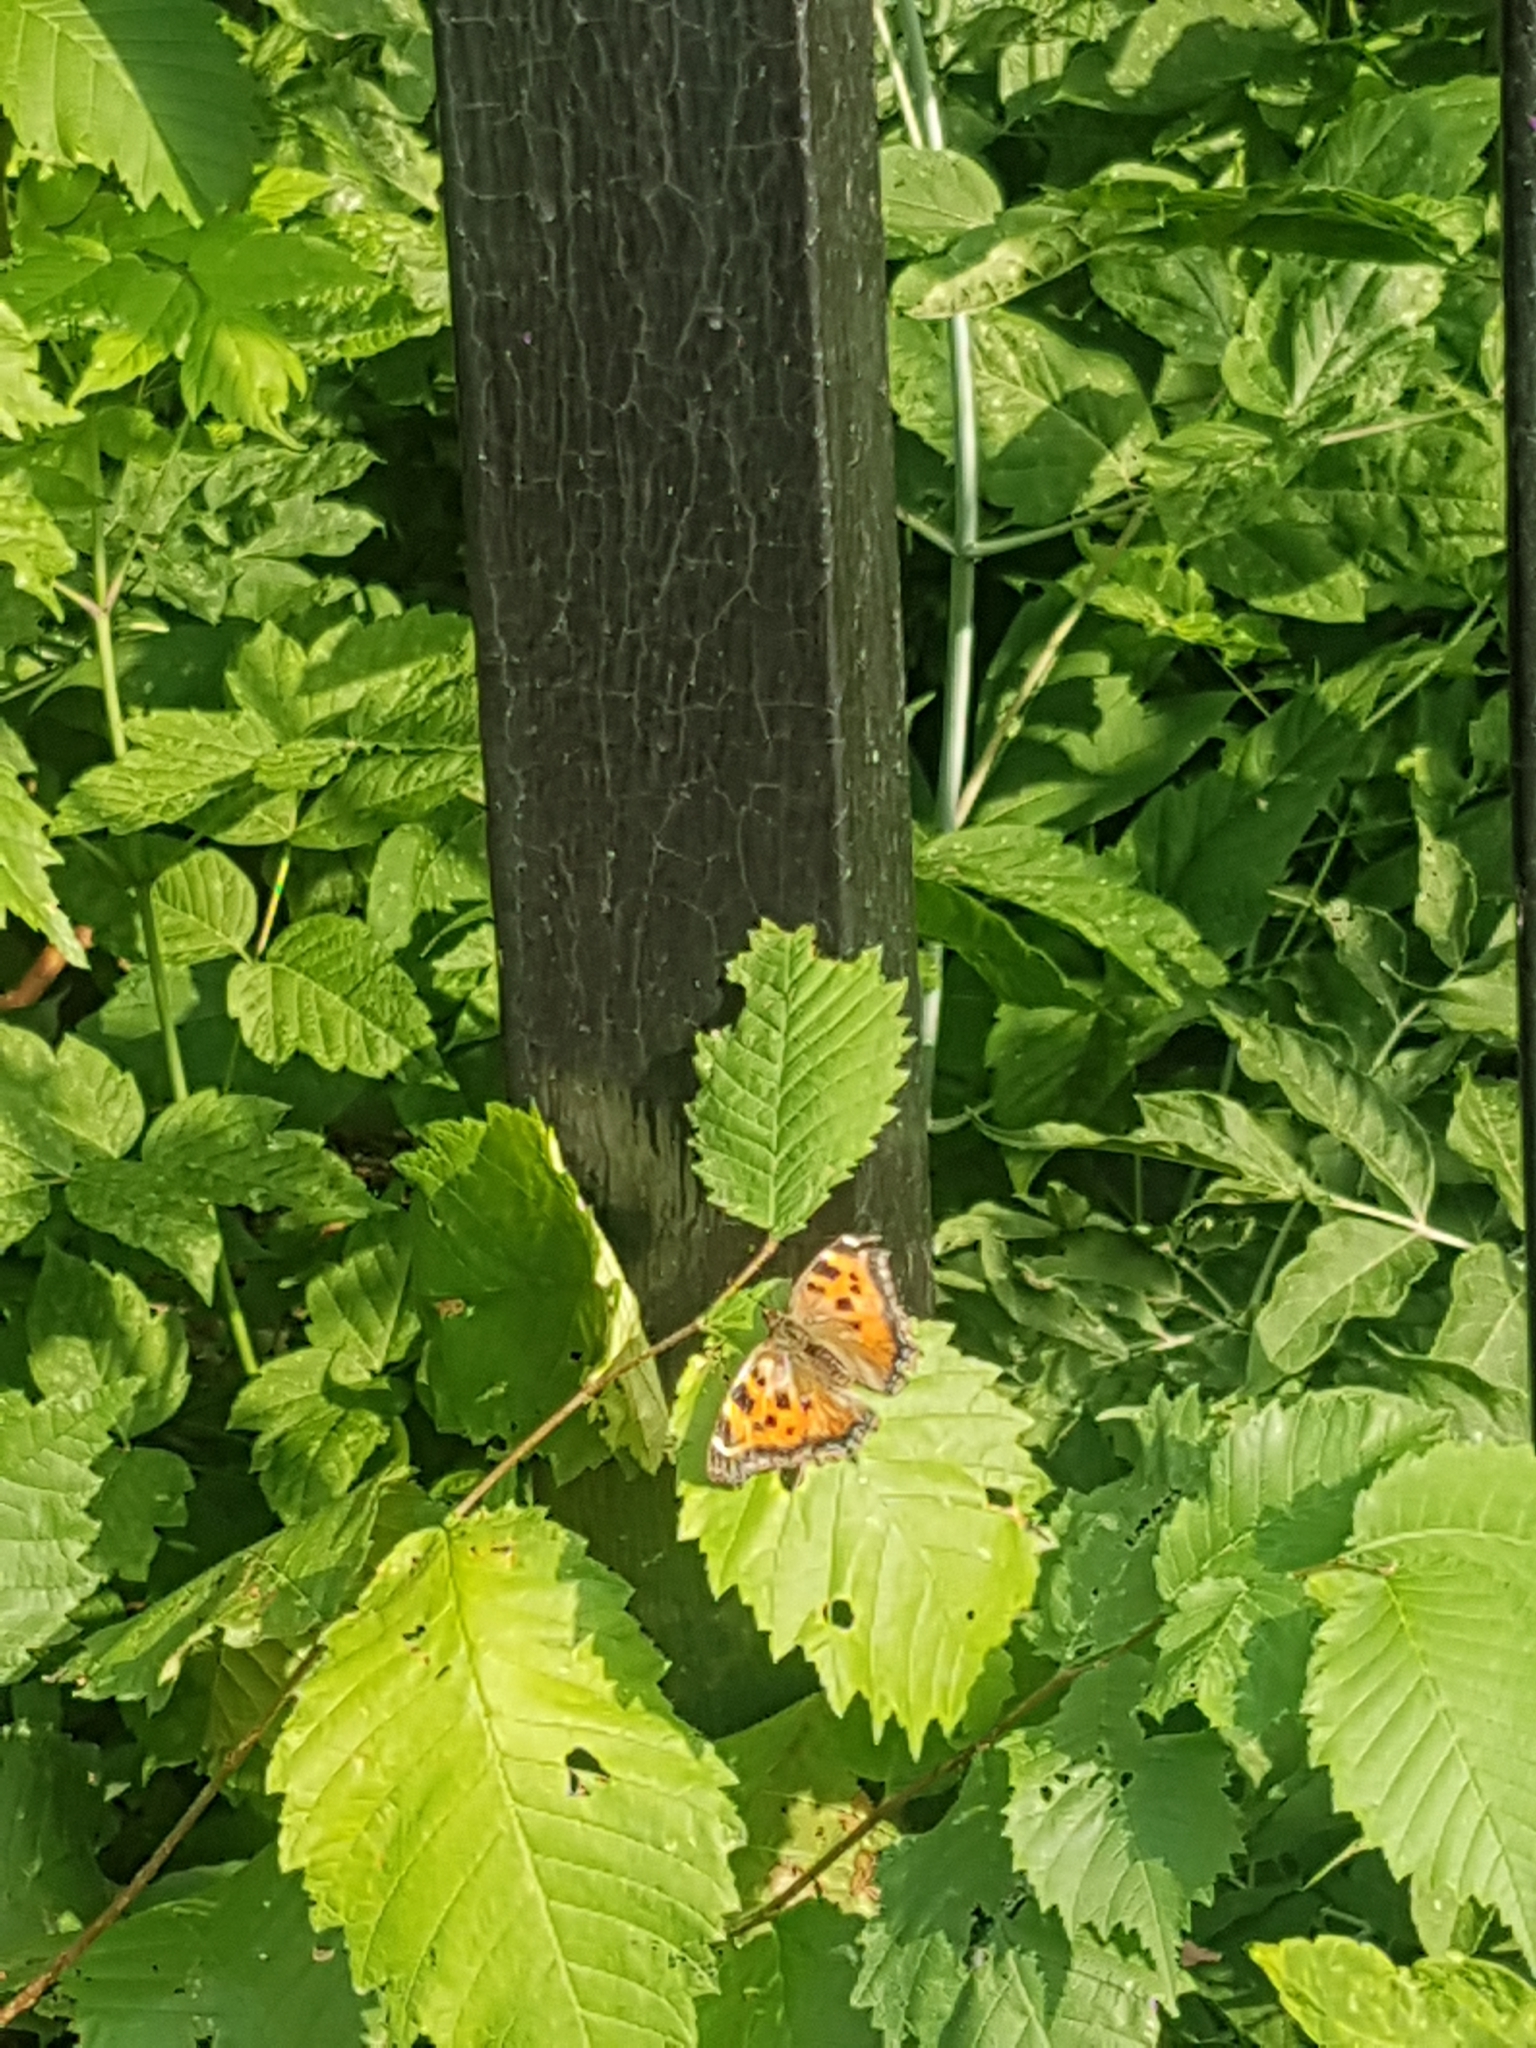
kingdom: Animalia
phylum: Arthropoda
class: Insecta
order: Lepidoptera
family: Nymphalidae
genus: Nymphalis
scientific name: Nymphalis xanthomelas
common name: Scarce tortoiseshell
